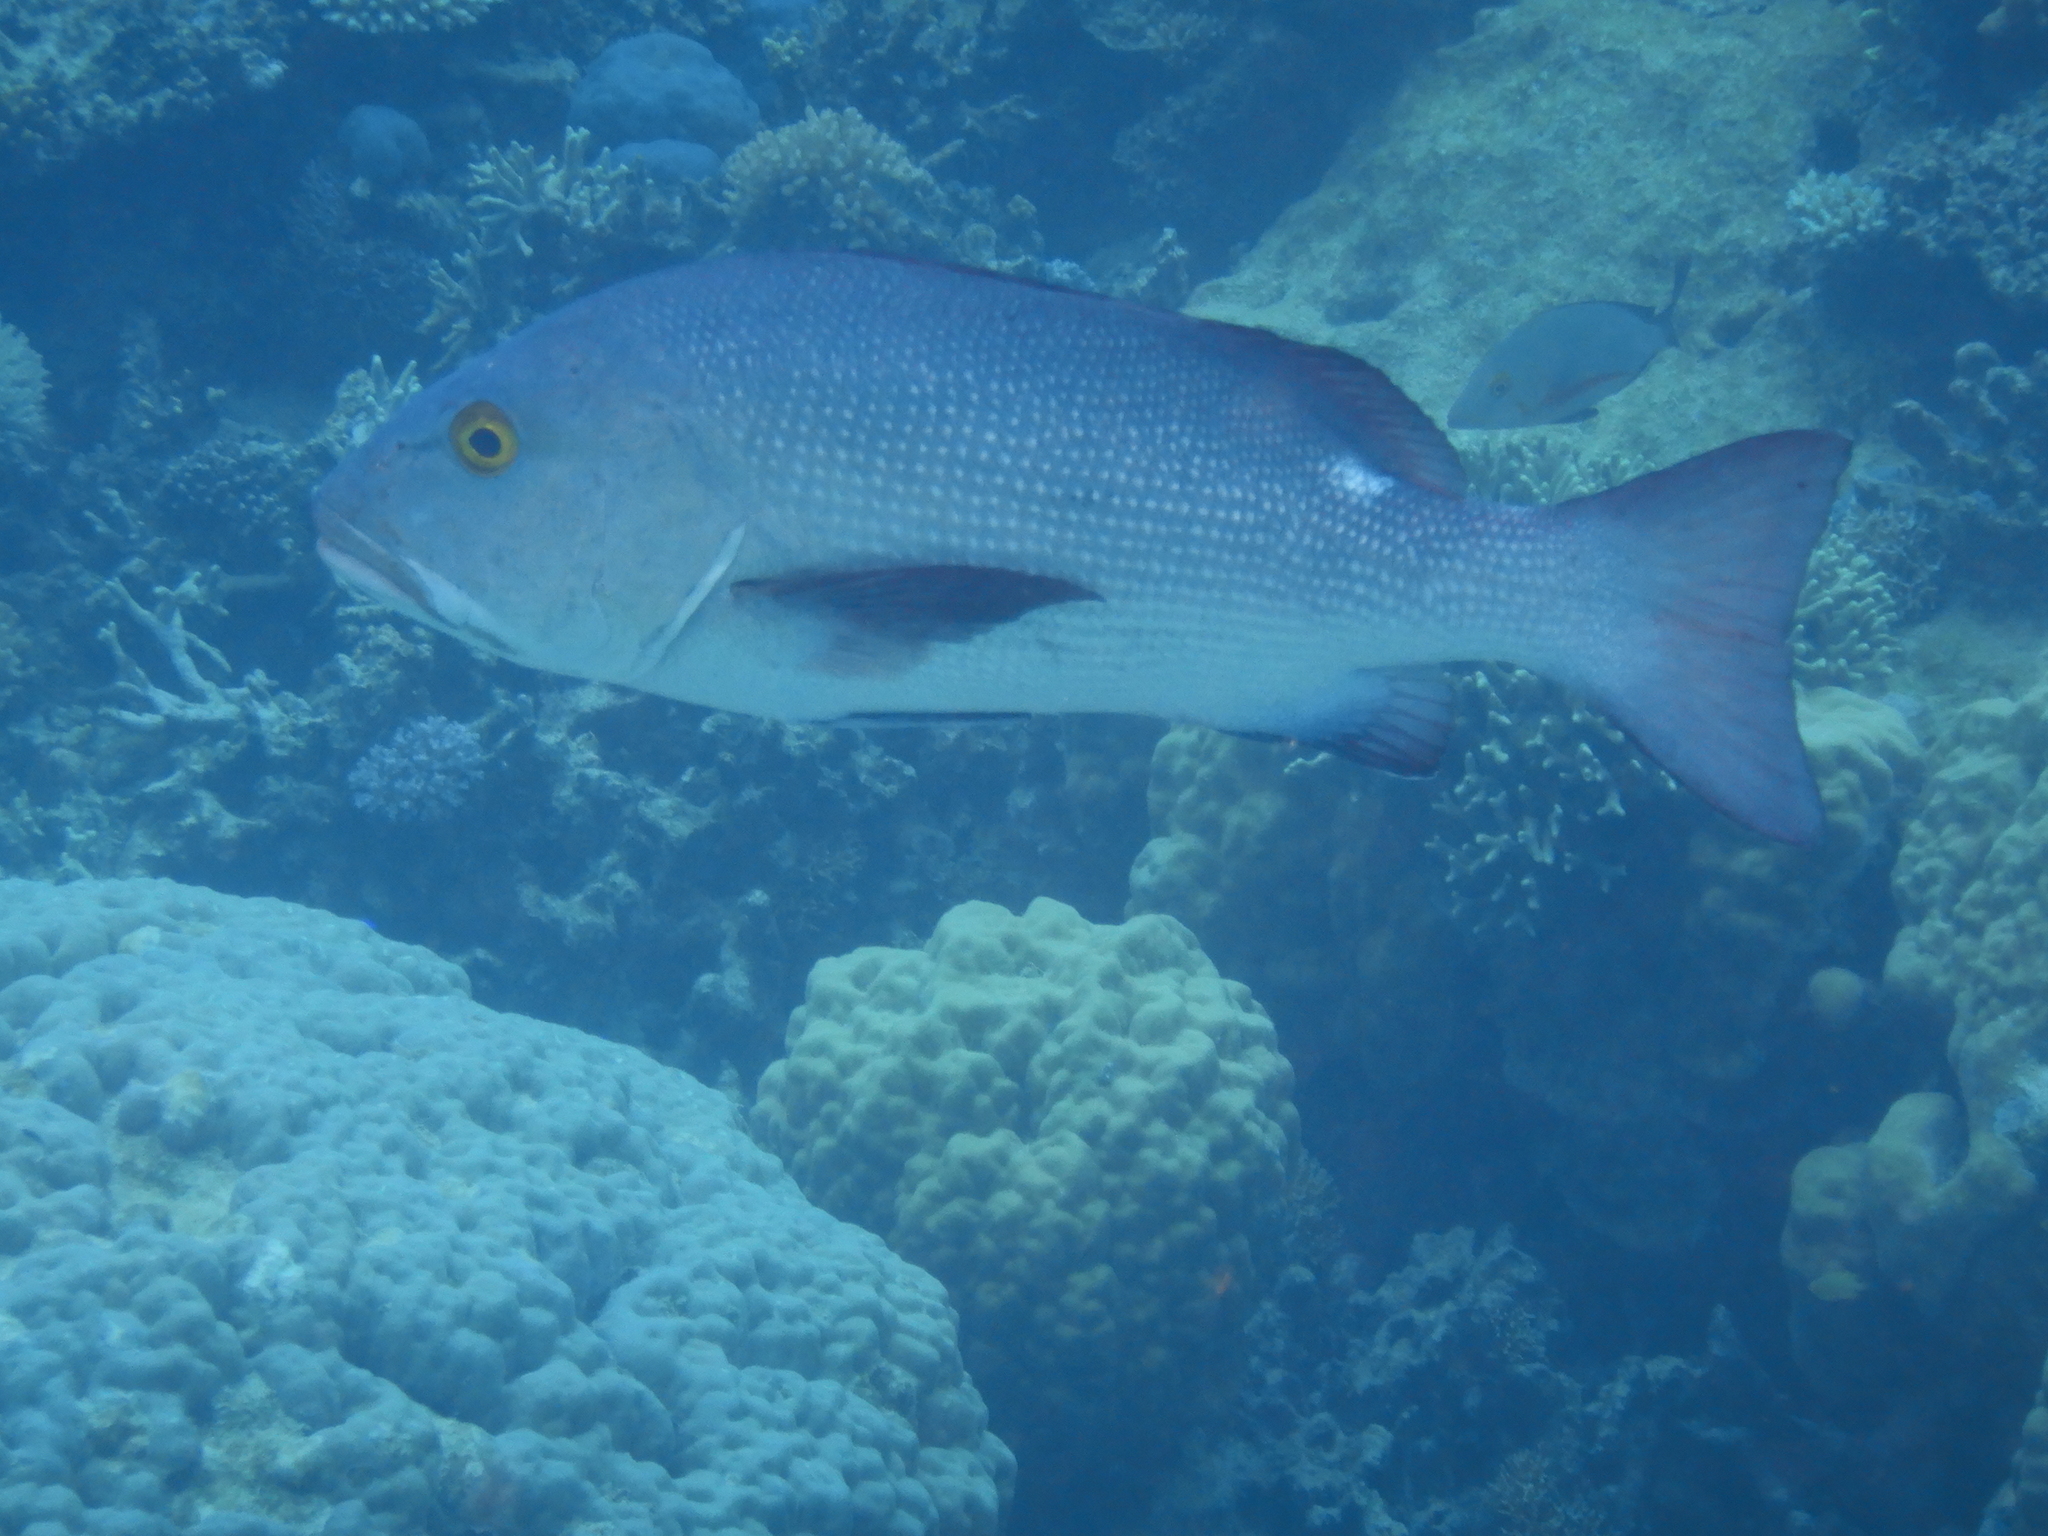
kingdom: Animalia
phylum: Chordata
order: Perciformes
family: Lutjanidae
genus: Lutjanus
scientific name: Lutjanus bohar
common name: Red bass
